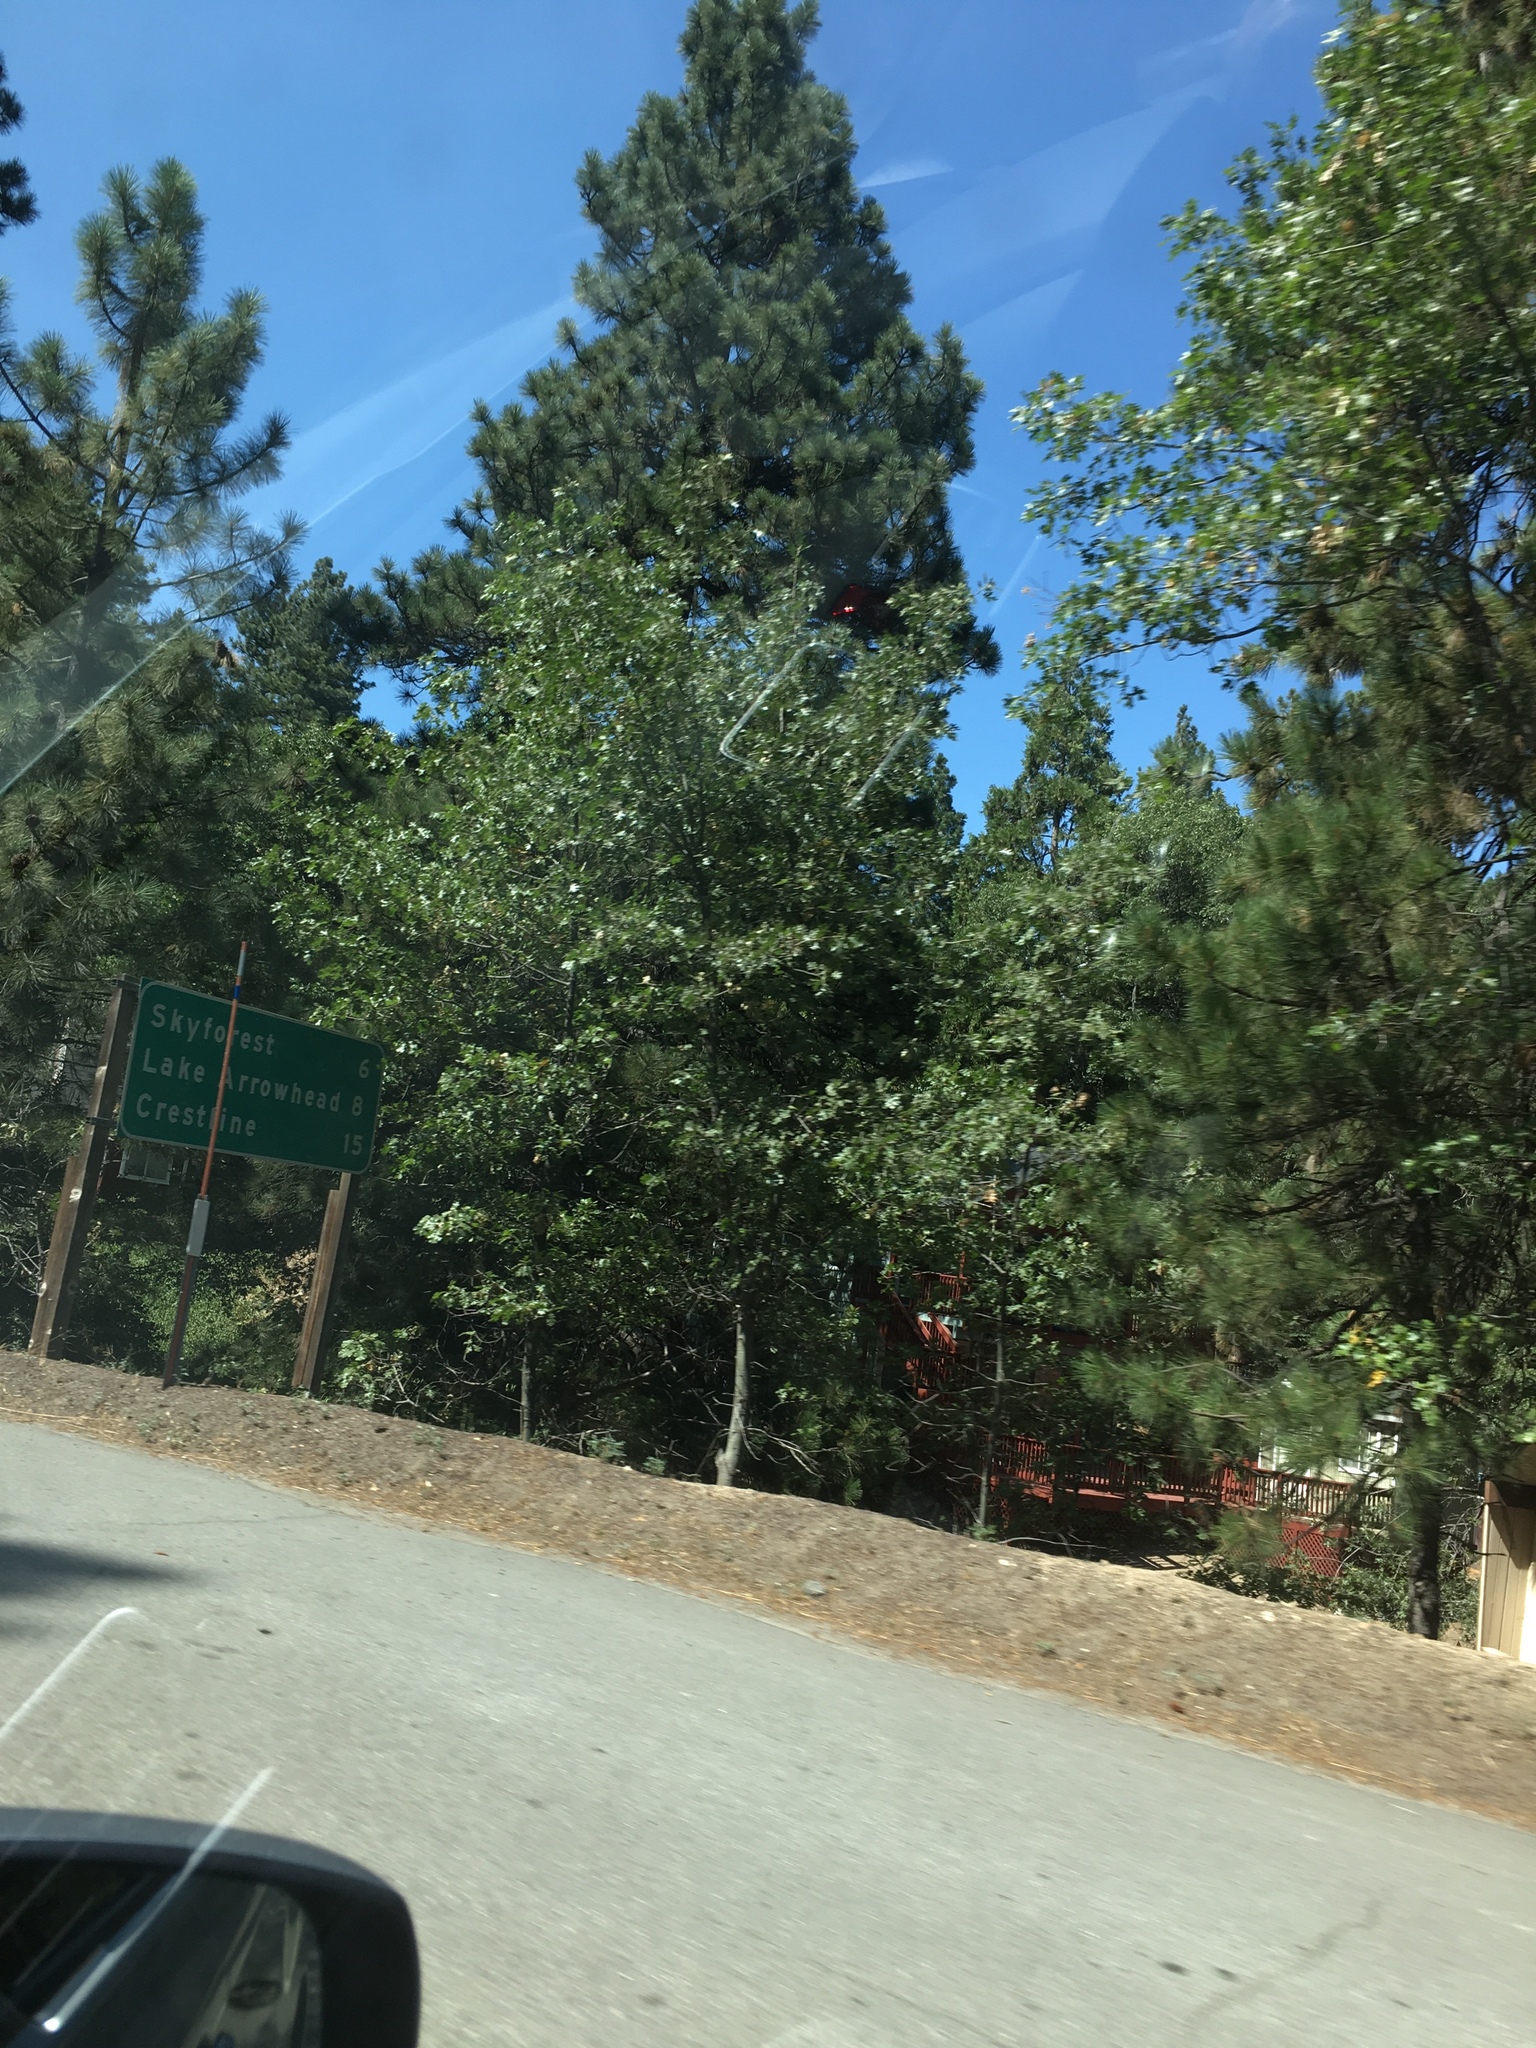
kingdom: Plantae
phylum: Tracheophyta
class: Magnoliopsida
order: Fagales
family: Fagaceae
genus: Quercus
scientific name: Quercus kelloggii
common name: California black oak
